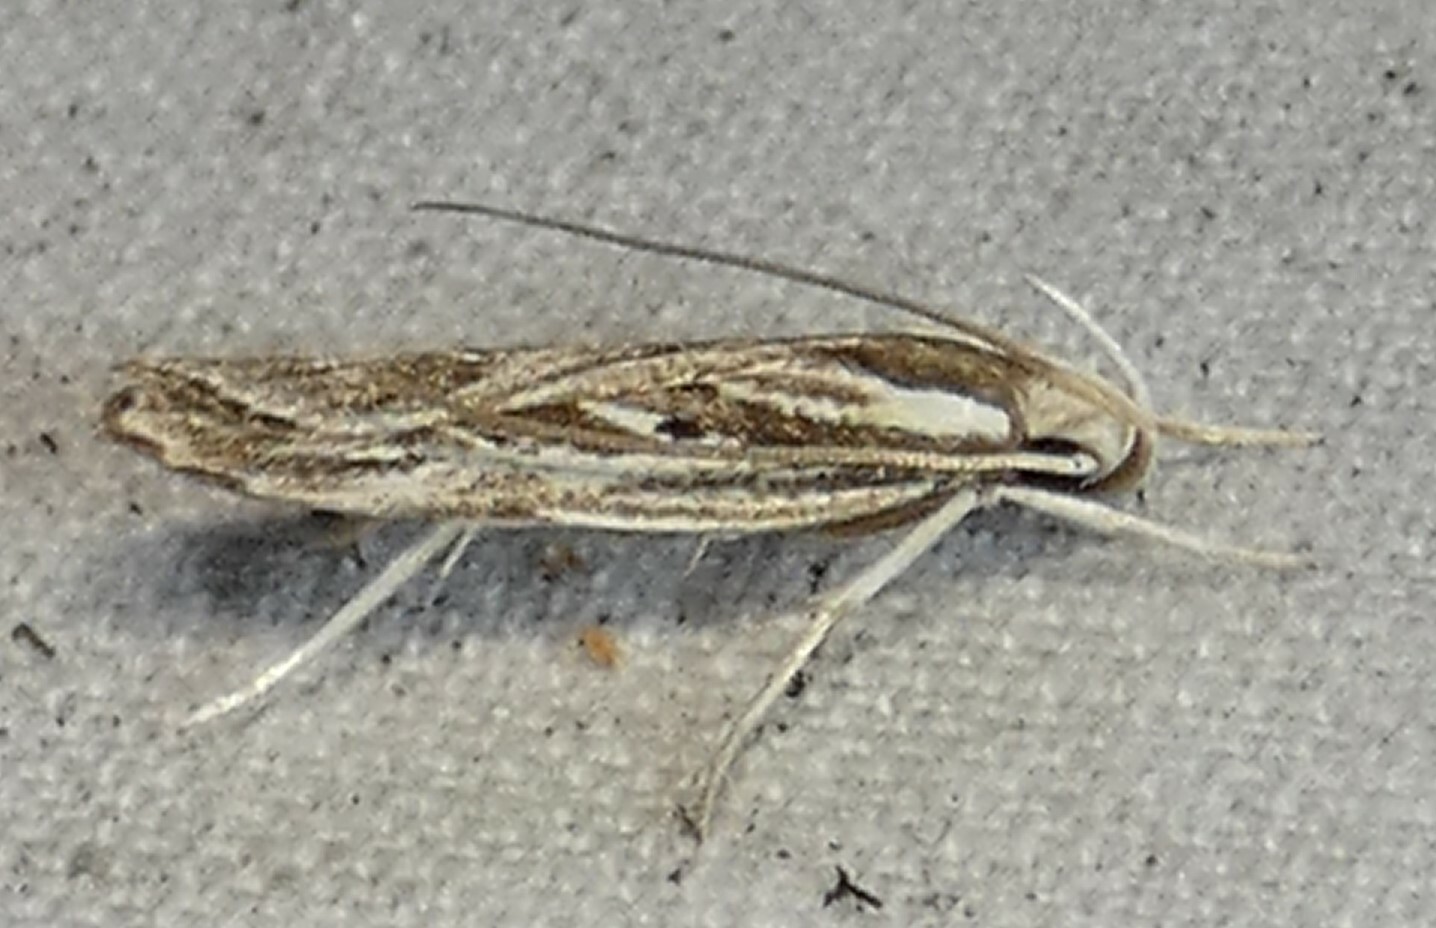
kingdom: Animalia
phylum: Arthropoda
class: Insecta
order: Lepidoptera
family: Depressariidae
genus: Eupragia
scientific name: Eupragia hospita
